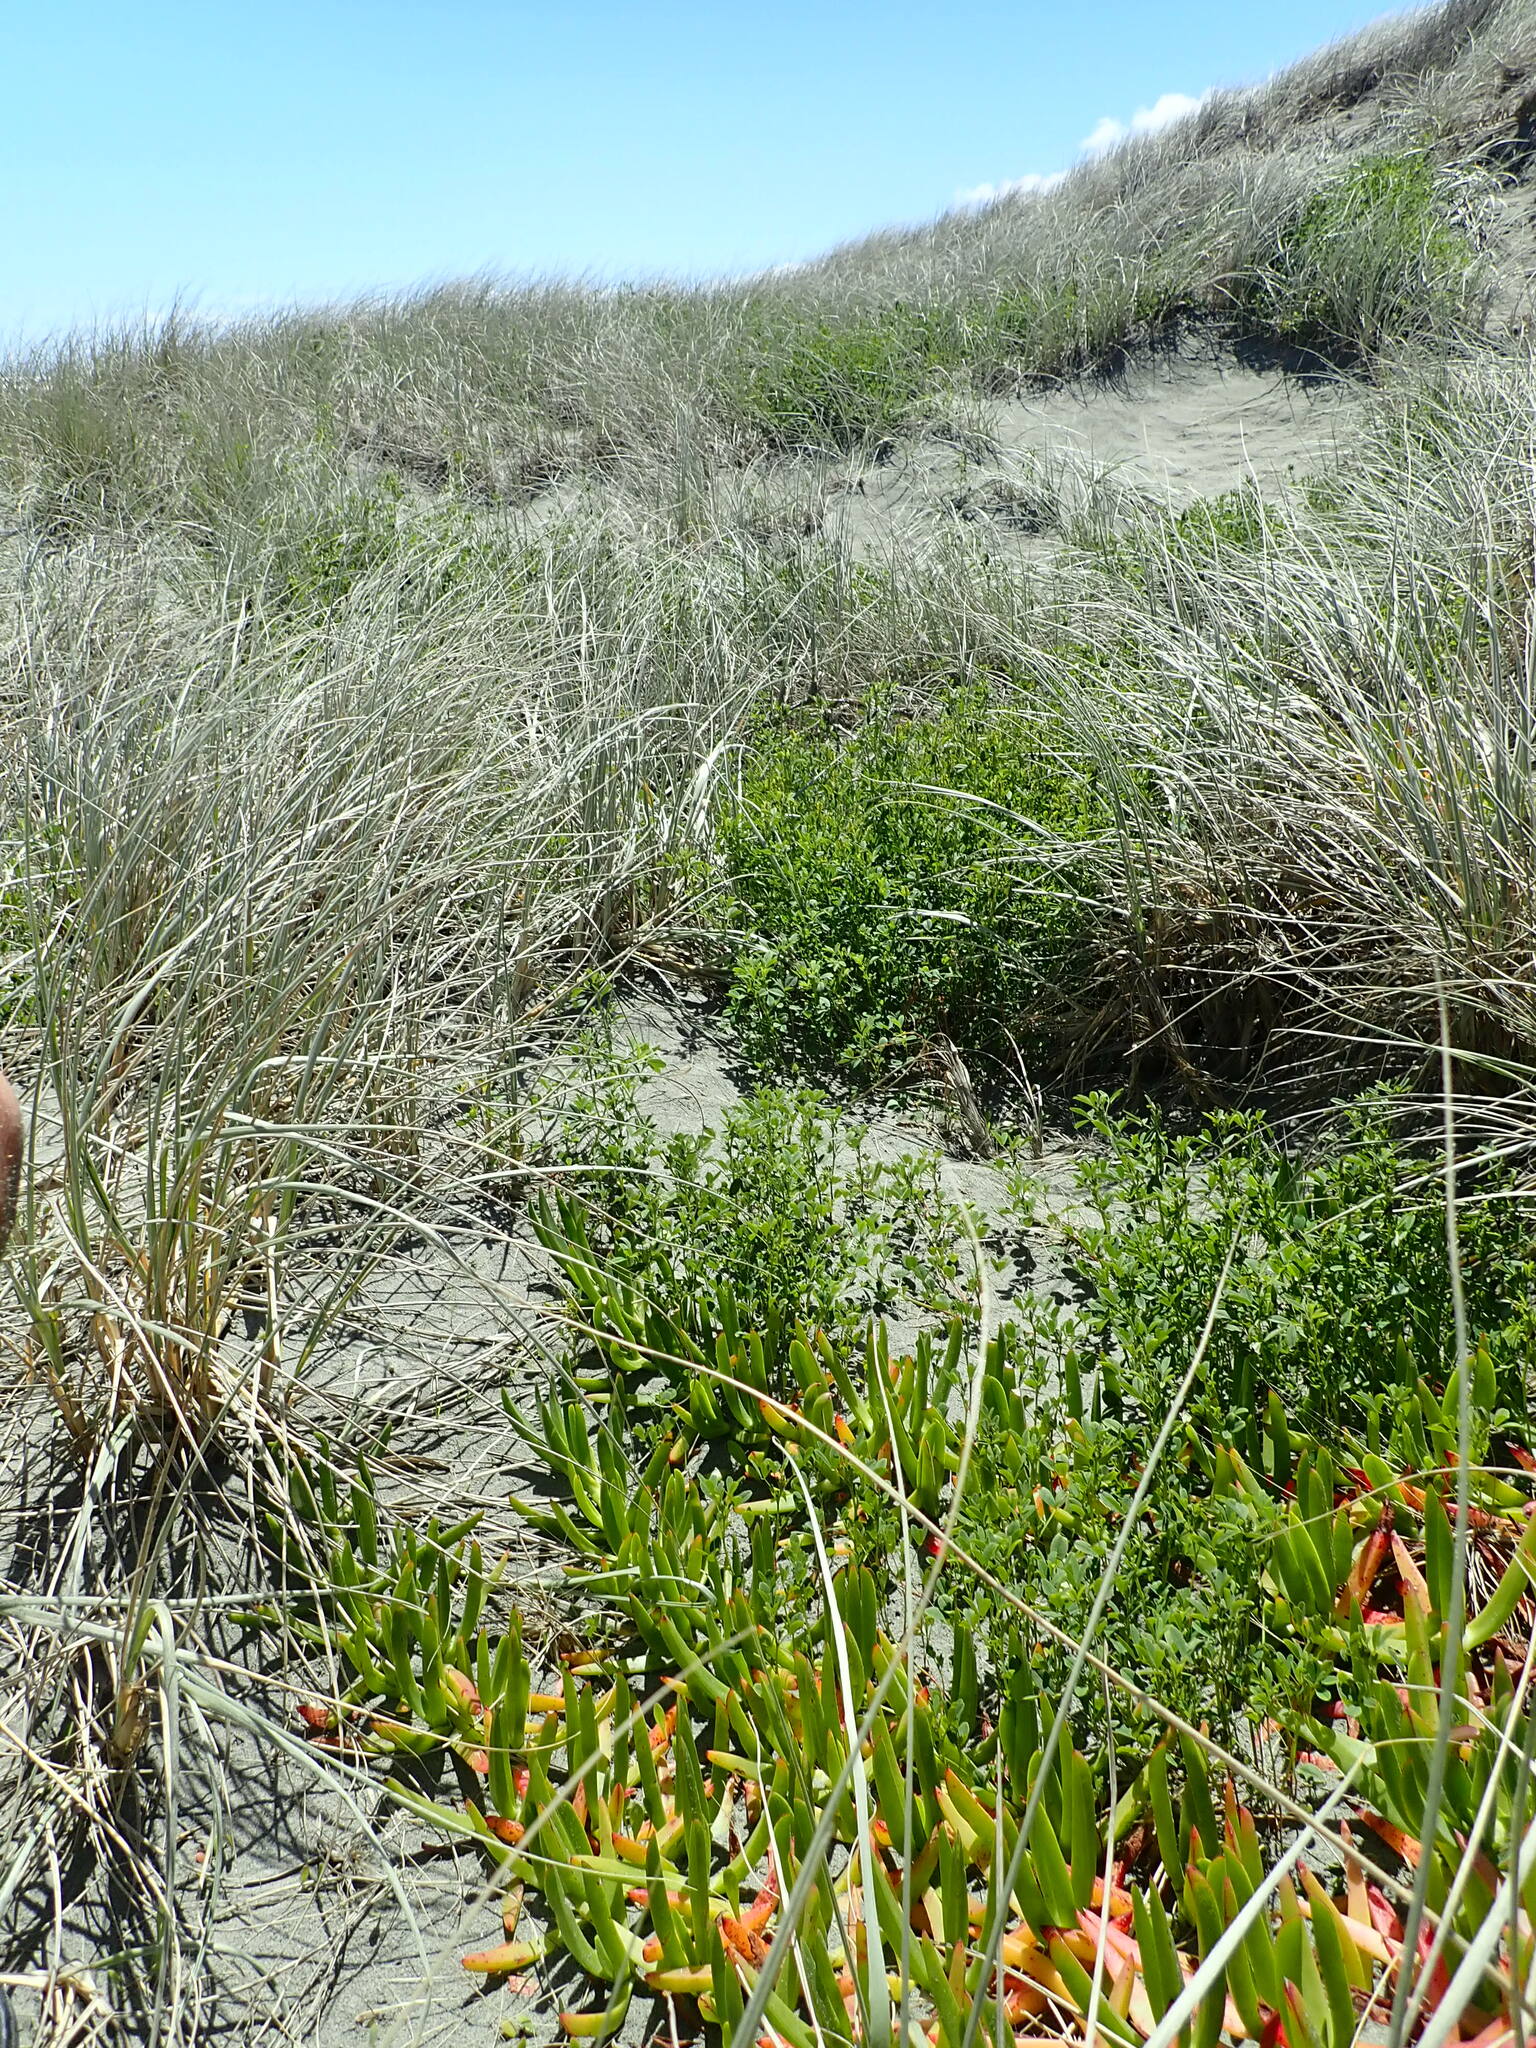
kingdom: Plantae
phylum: Tracheophyta
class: Magnoliopsida
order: Fabales
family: Fabaceae
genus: Melilotus
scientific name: Melilotus indicus
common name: Small melilot
